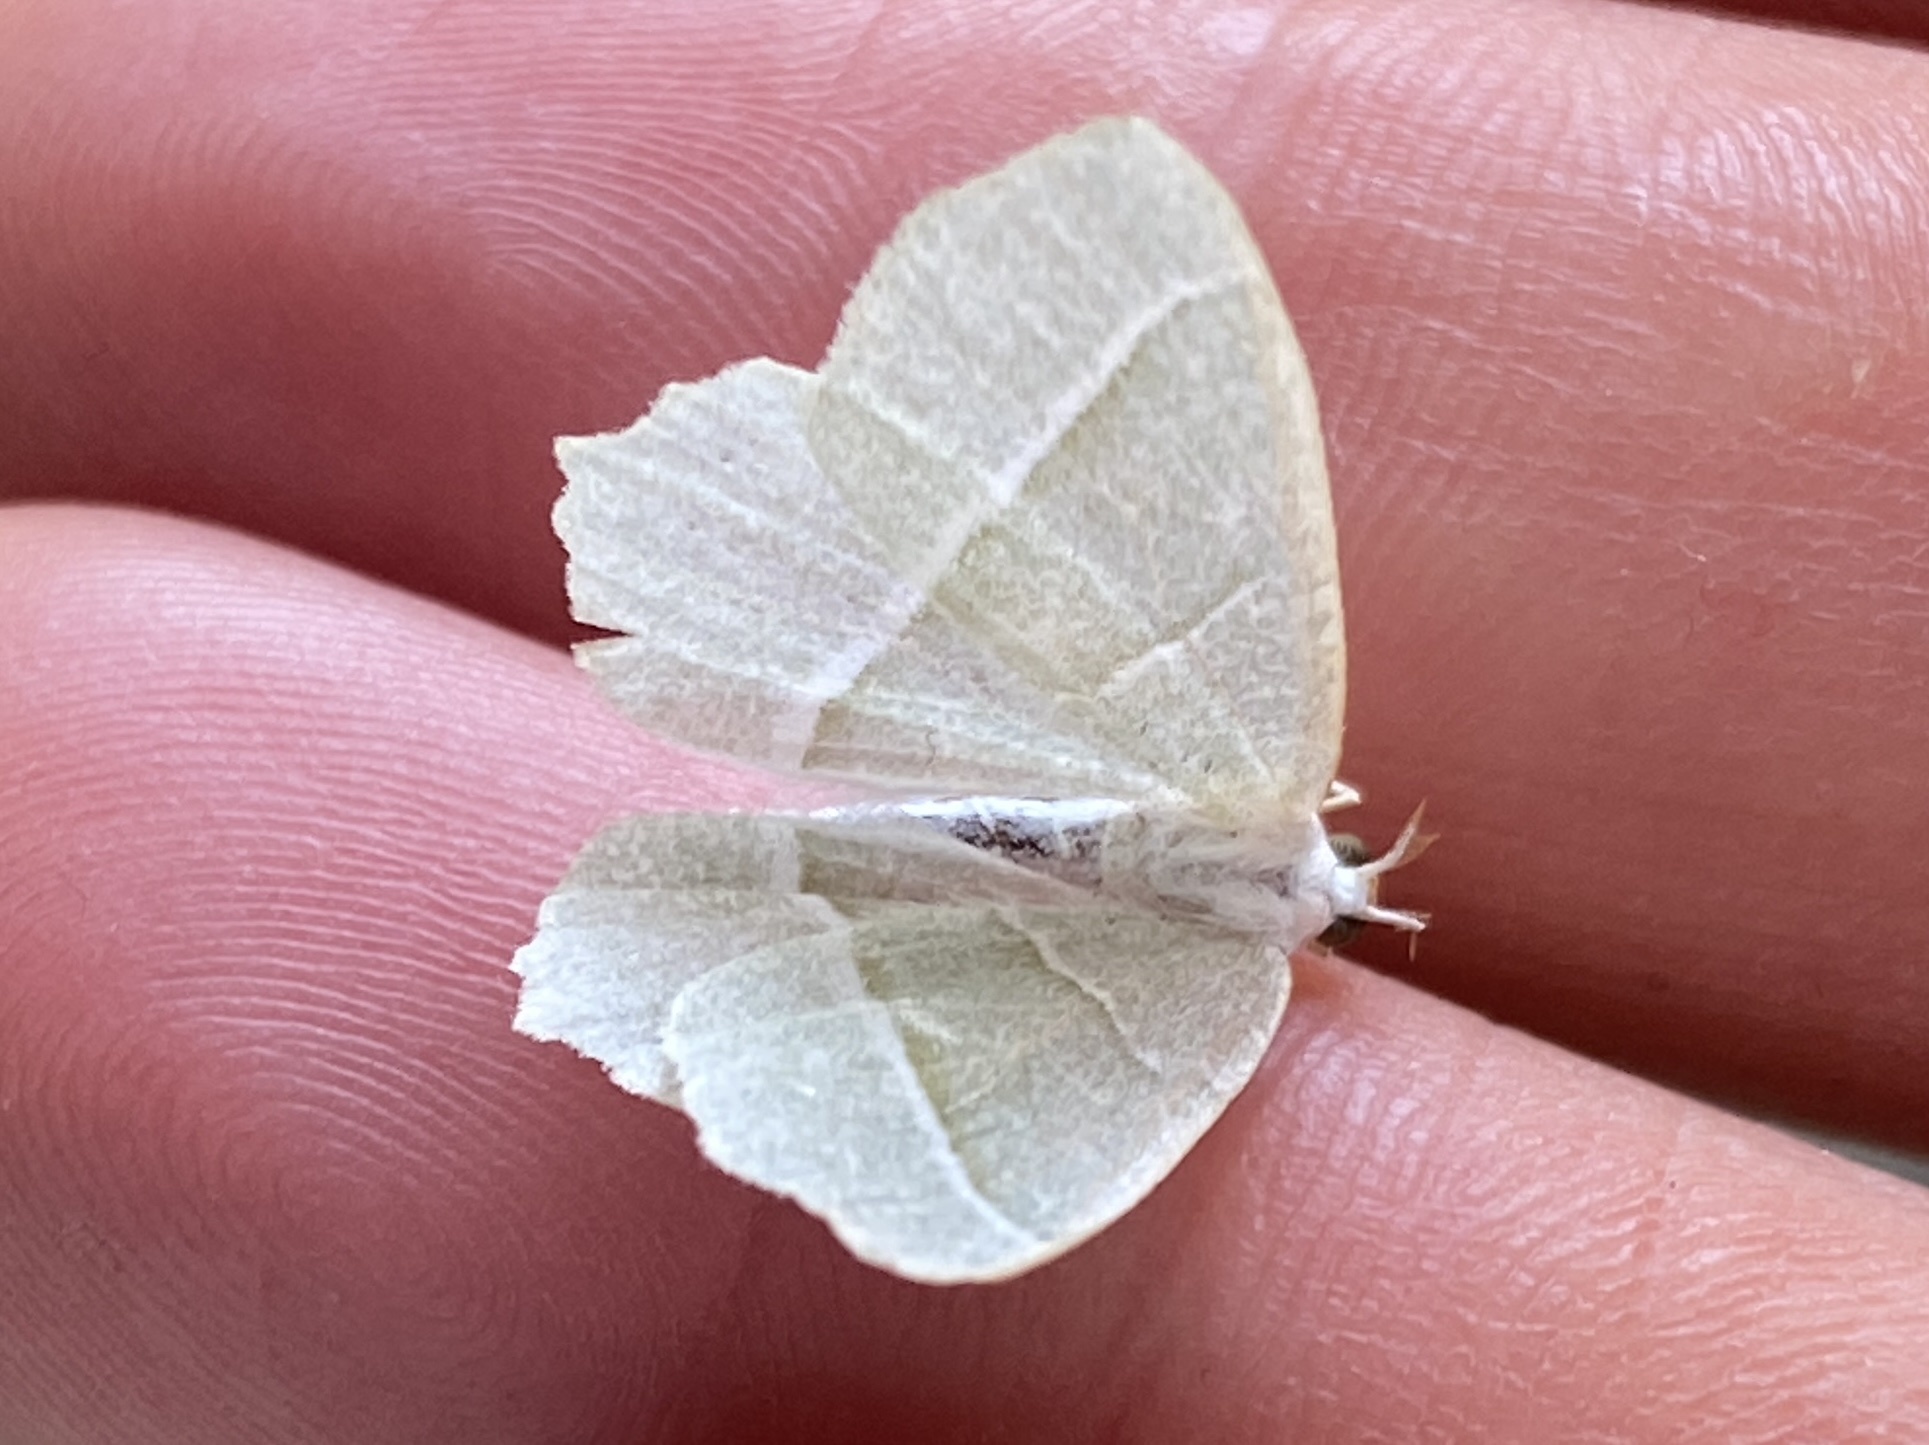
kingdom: Animalia
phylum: Arthropoda
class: Insecta
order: Lepidoptera
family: Geometridae
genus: Campaea
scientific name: Campaea margaritaria
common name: Light emerald
